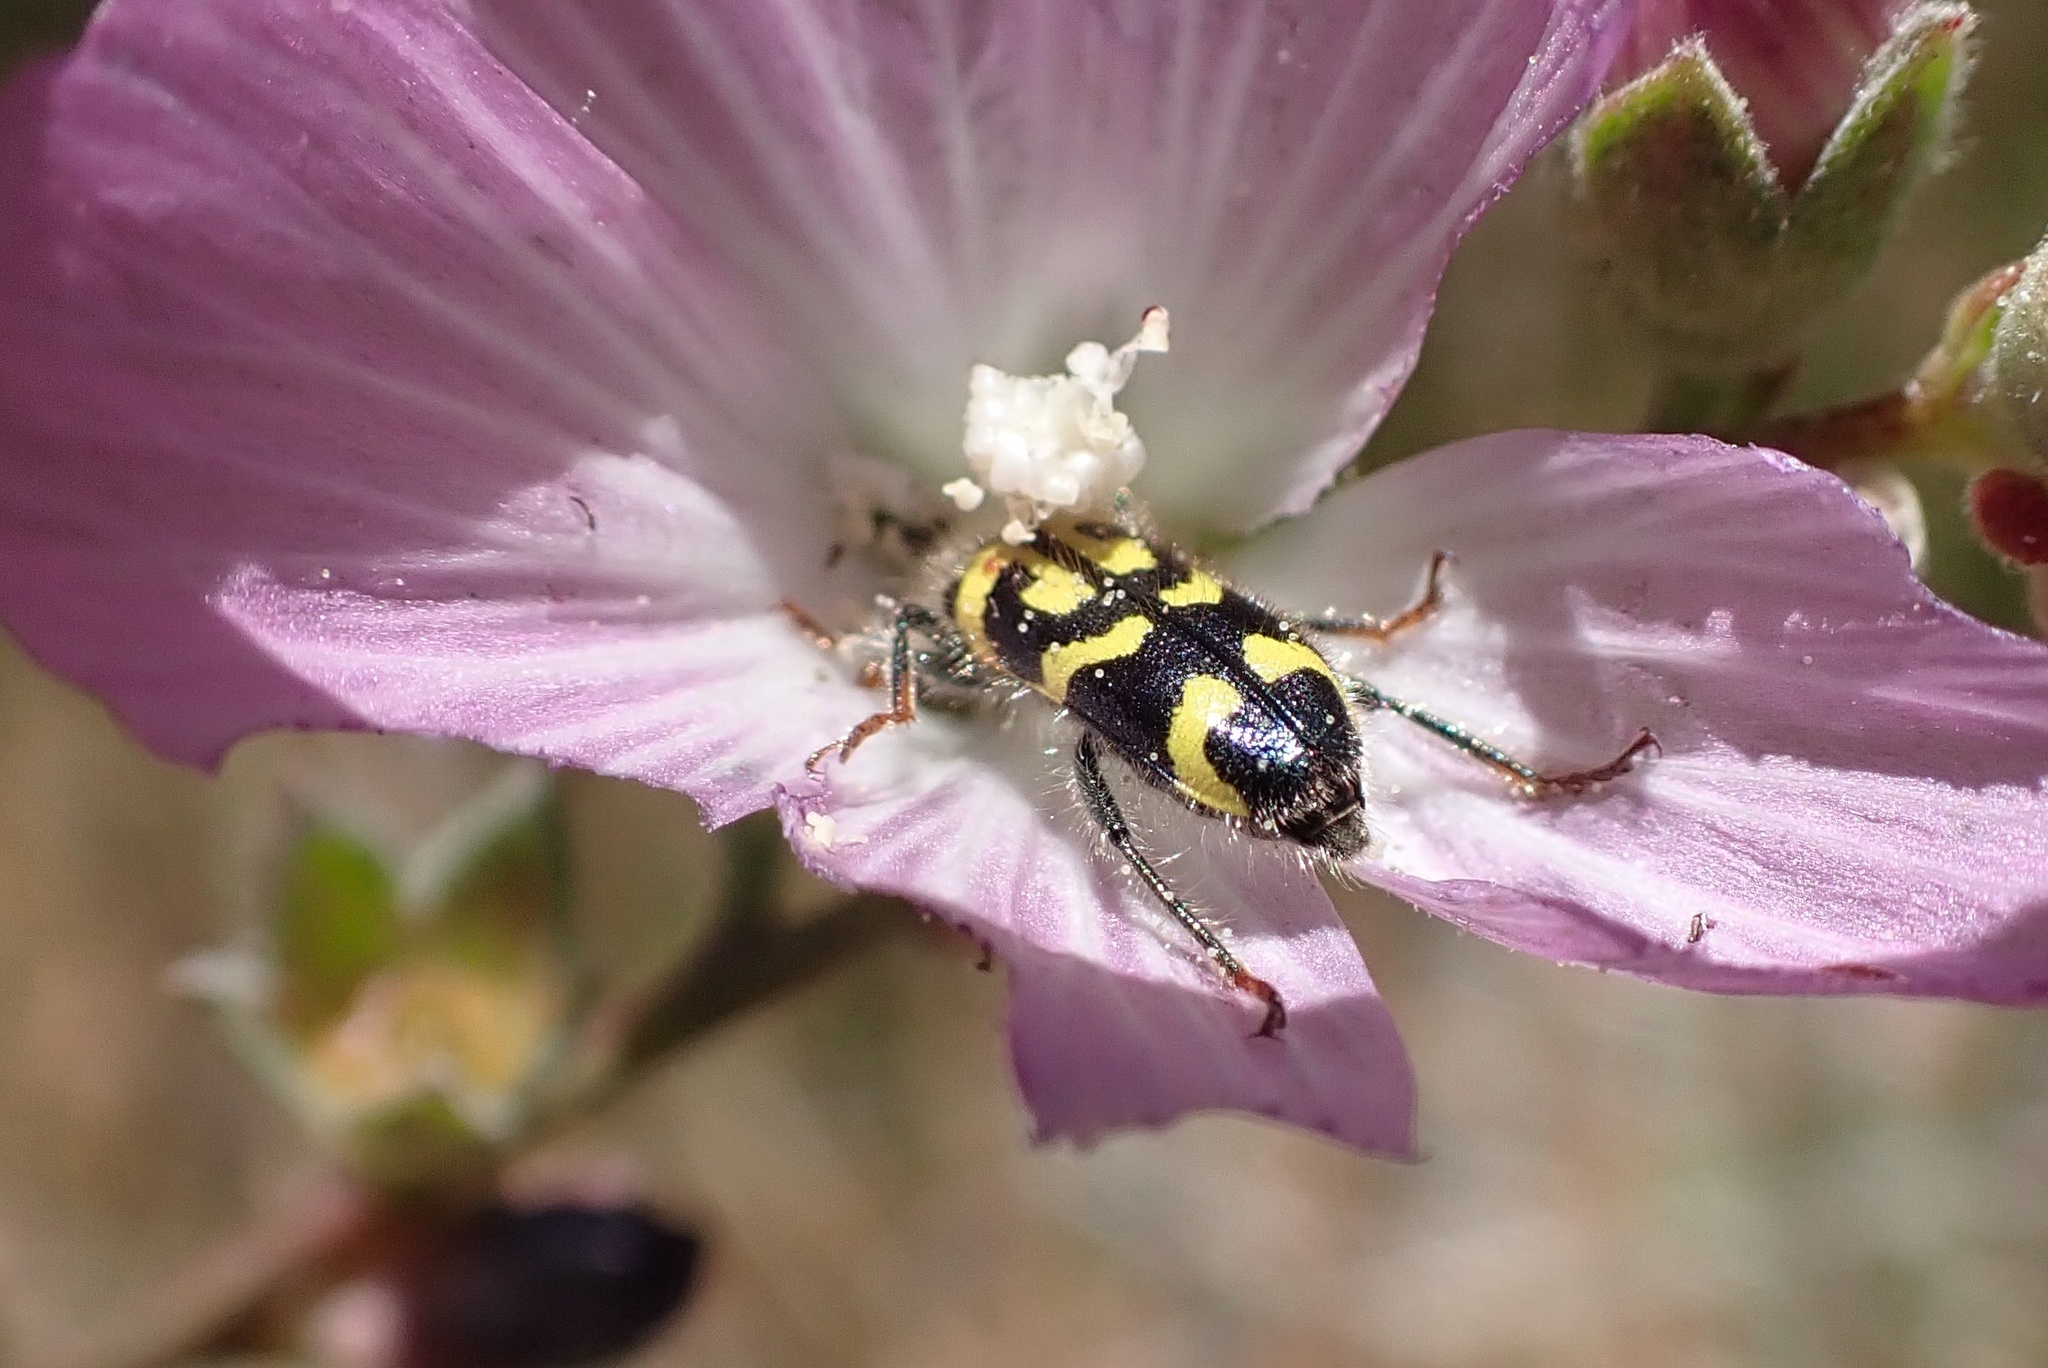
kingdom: Animalia
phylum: Arthropoda
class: Insecta
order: Coleoptera
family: Cleridae
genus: Trichodes
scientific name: Trichodes ornatus
